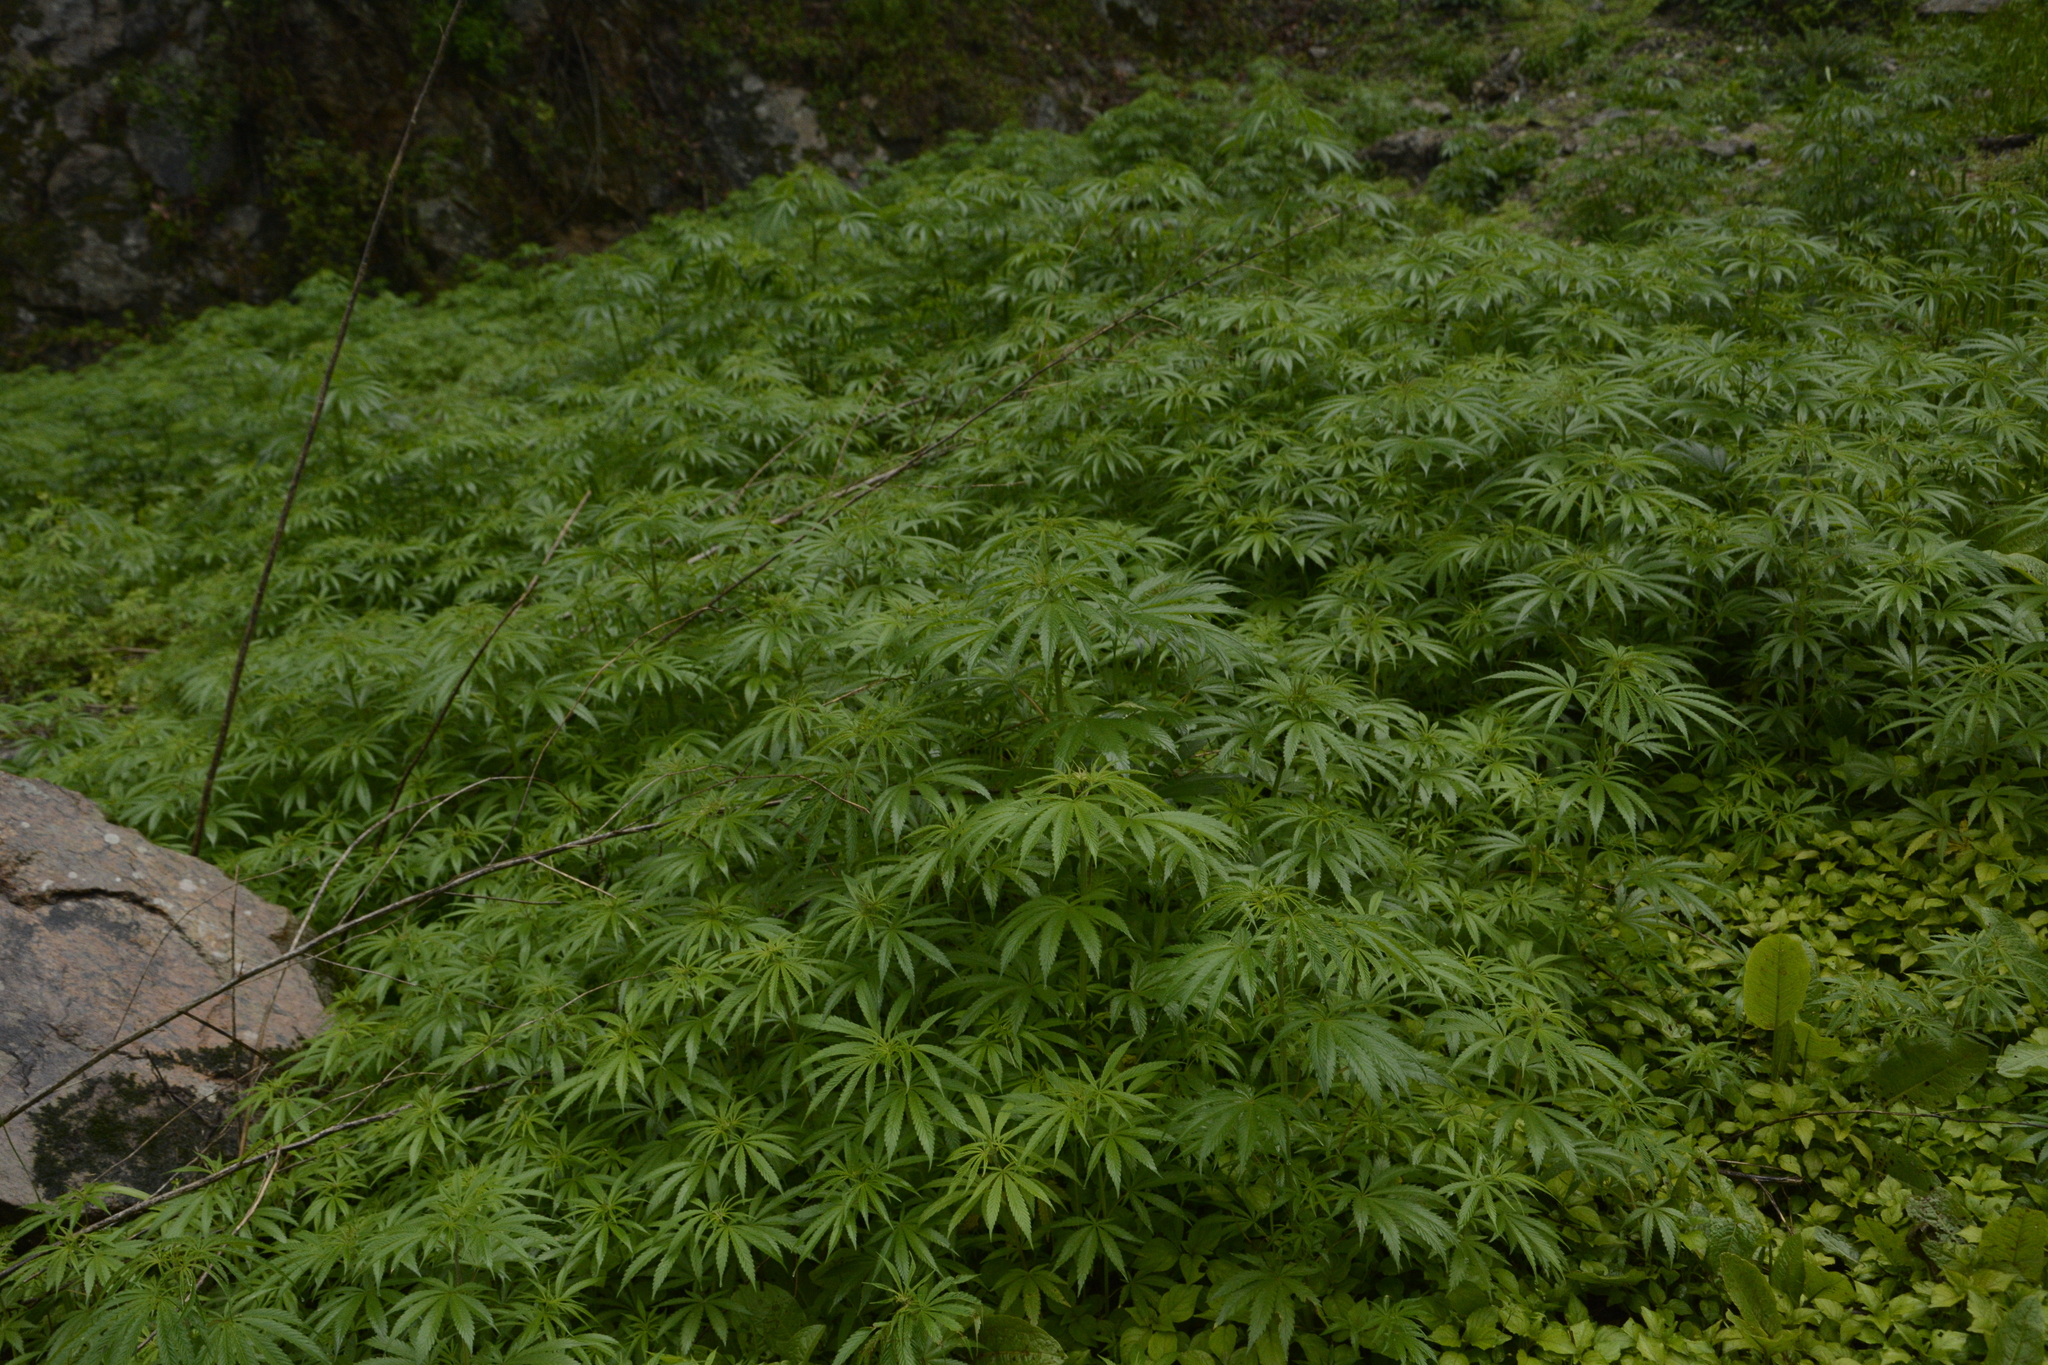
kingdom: Plantae
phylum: Tracheophyta
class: Magnoliopsida
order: Rosales
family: Cannabaceae
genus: Cannabis
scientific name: Cannabis sativa
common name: Hemp
